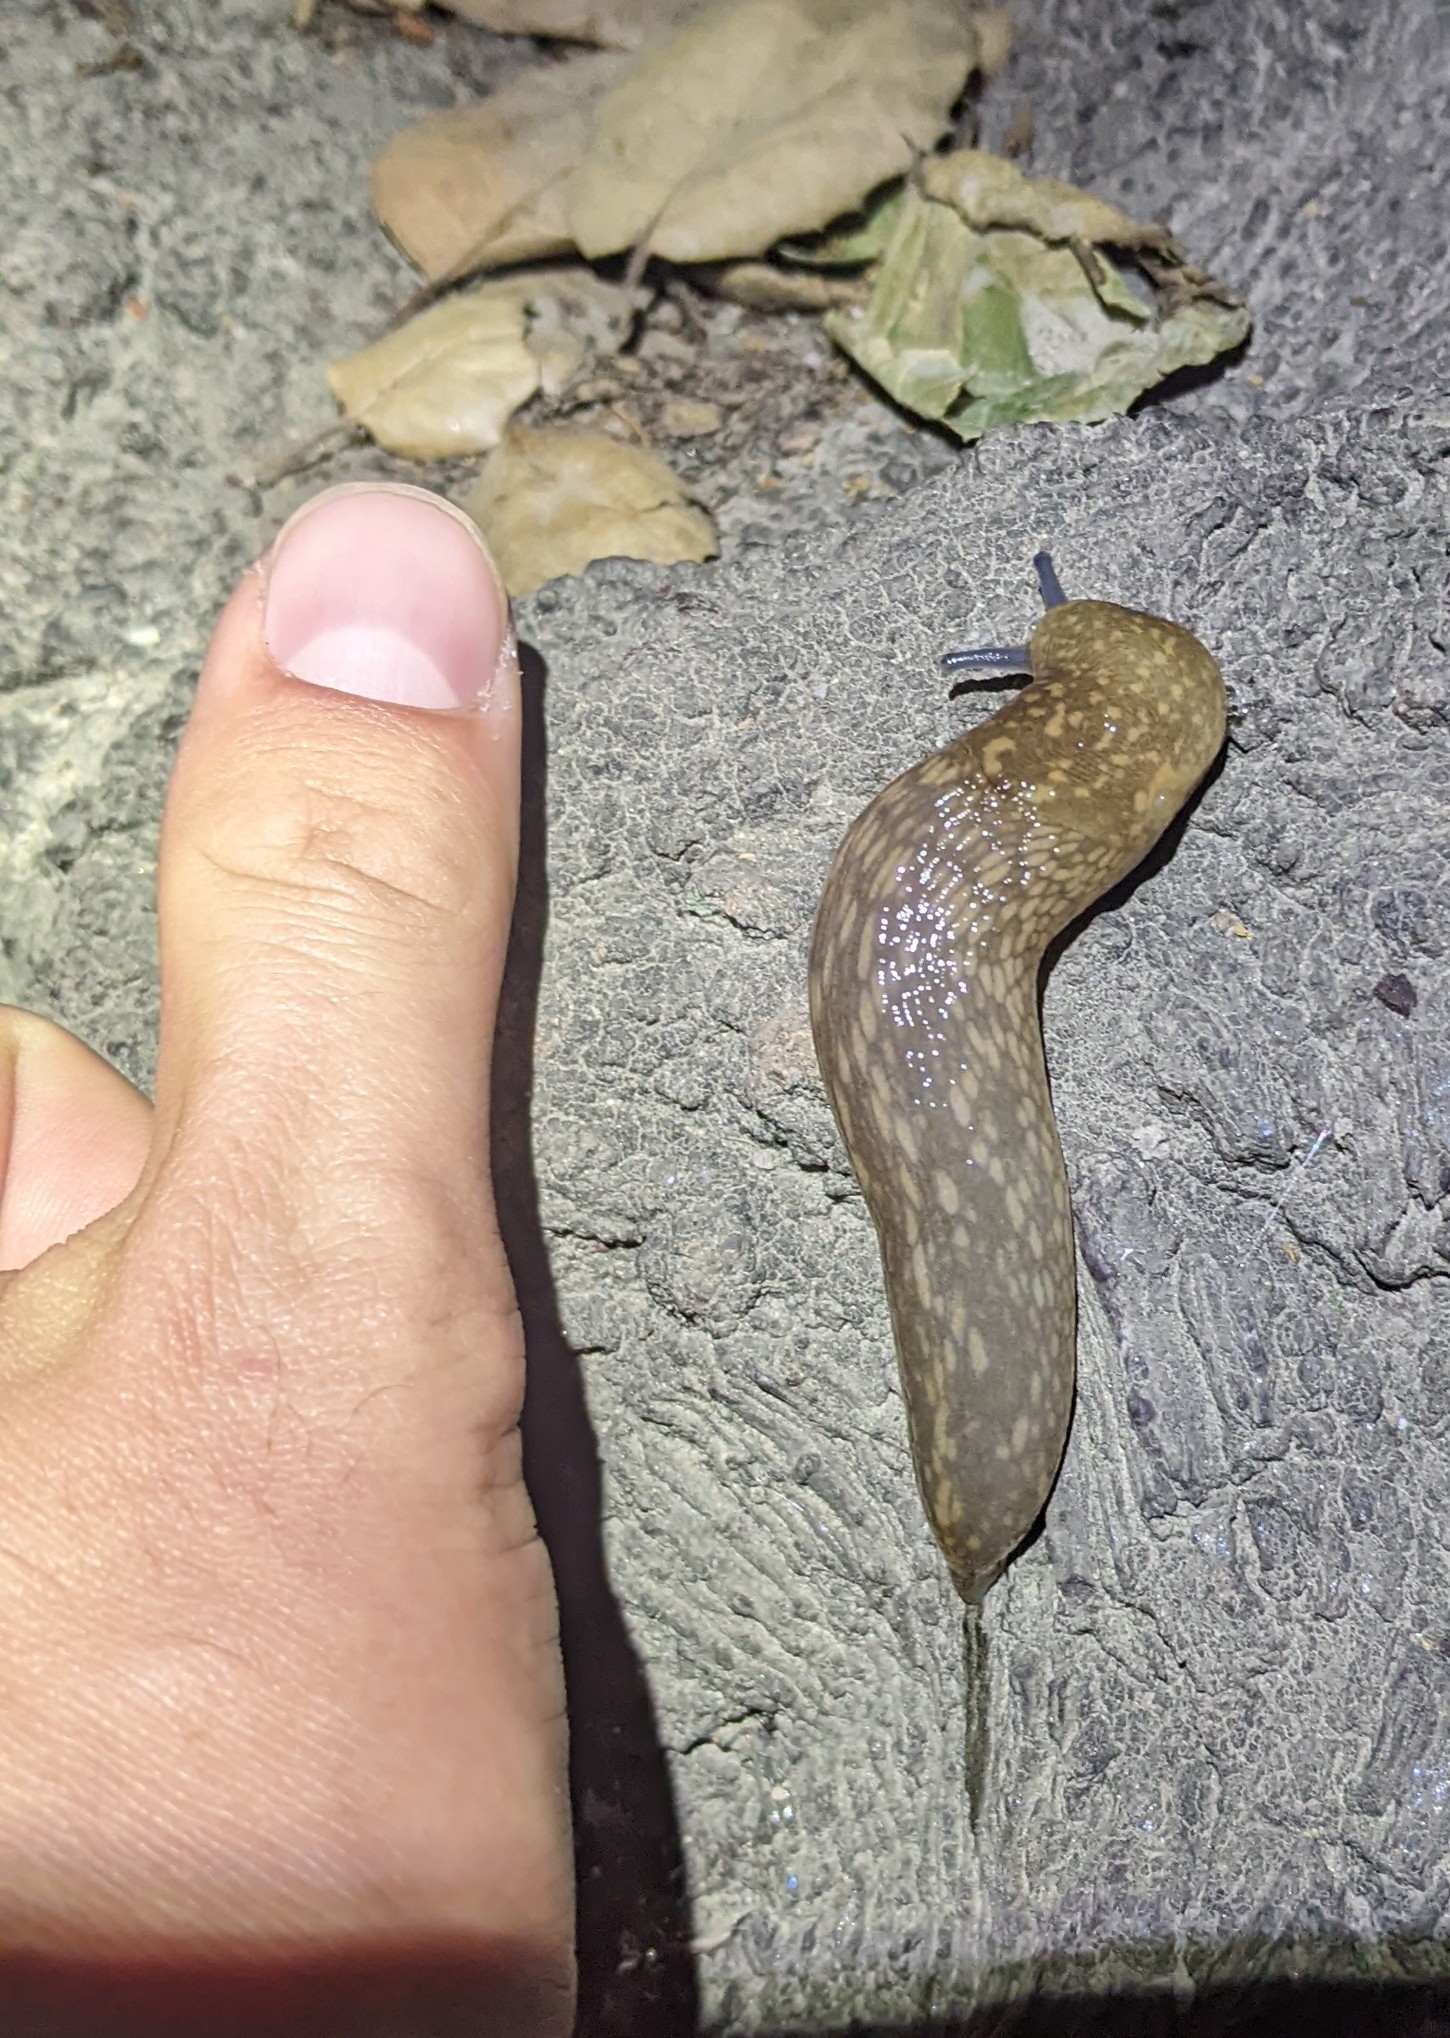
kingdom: Animalia
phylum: Mollusca
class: Gastropoda
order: Stylommatophora
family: Limacidae
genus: Limacus
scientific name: Limacus flavus
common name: Yellow gardenslug
